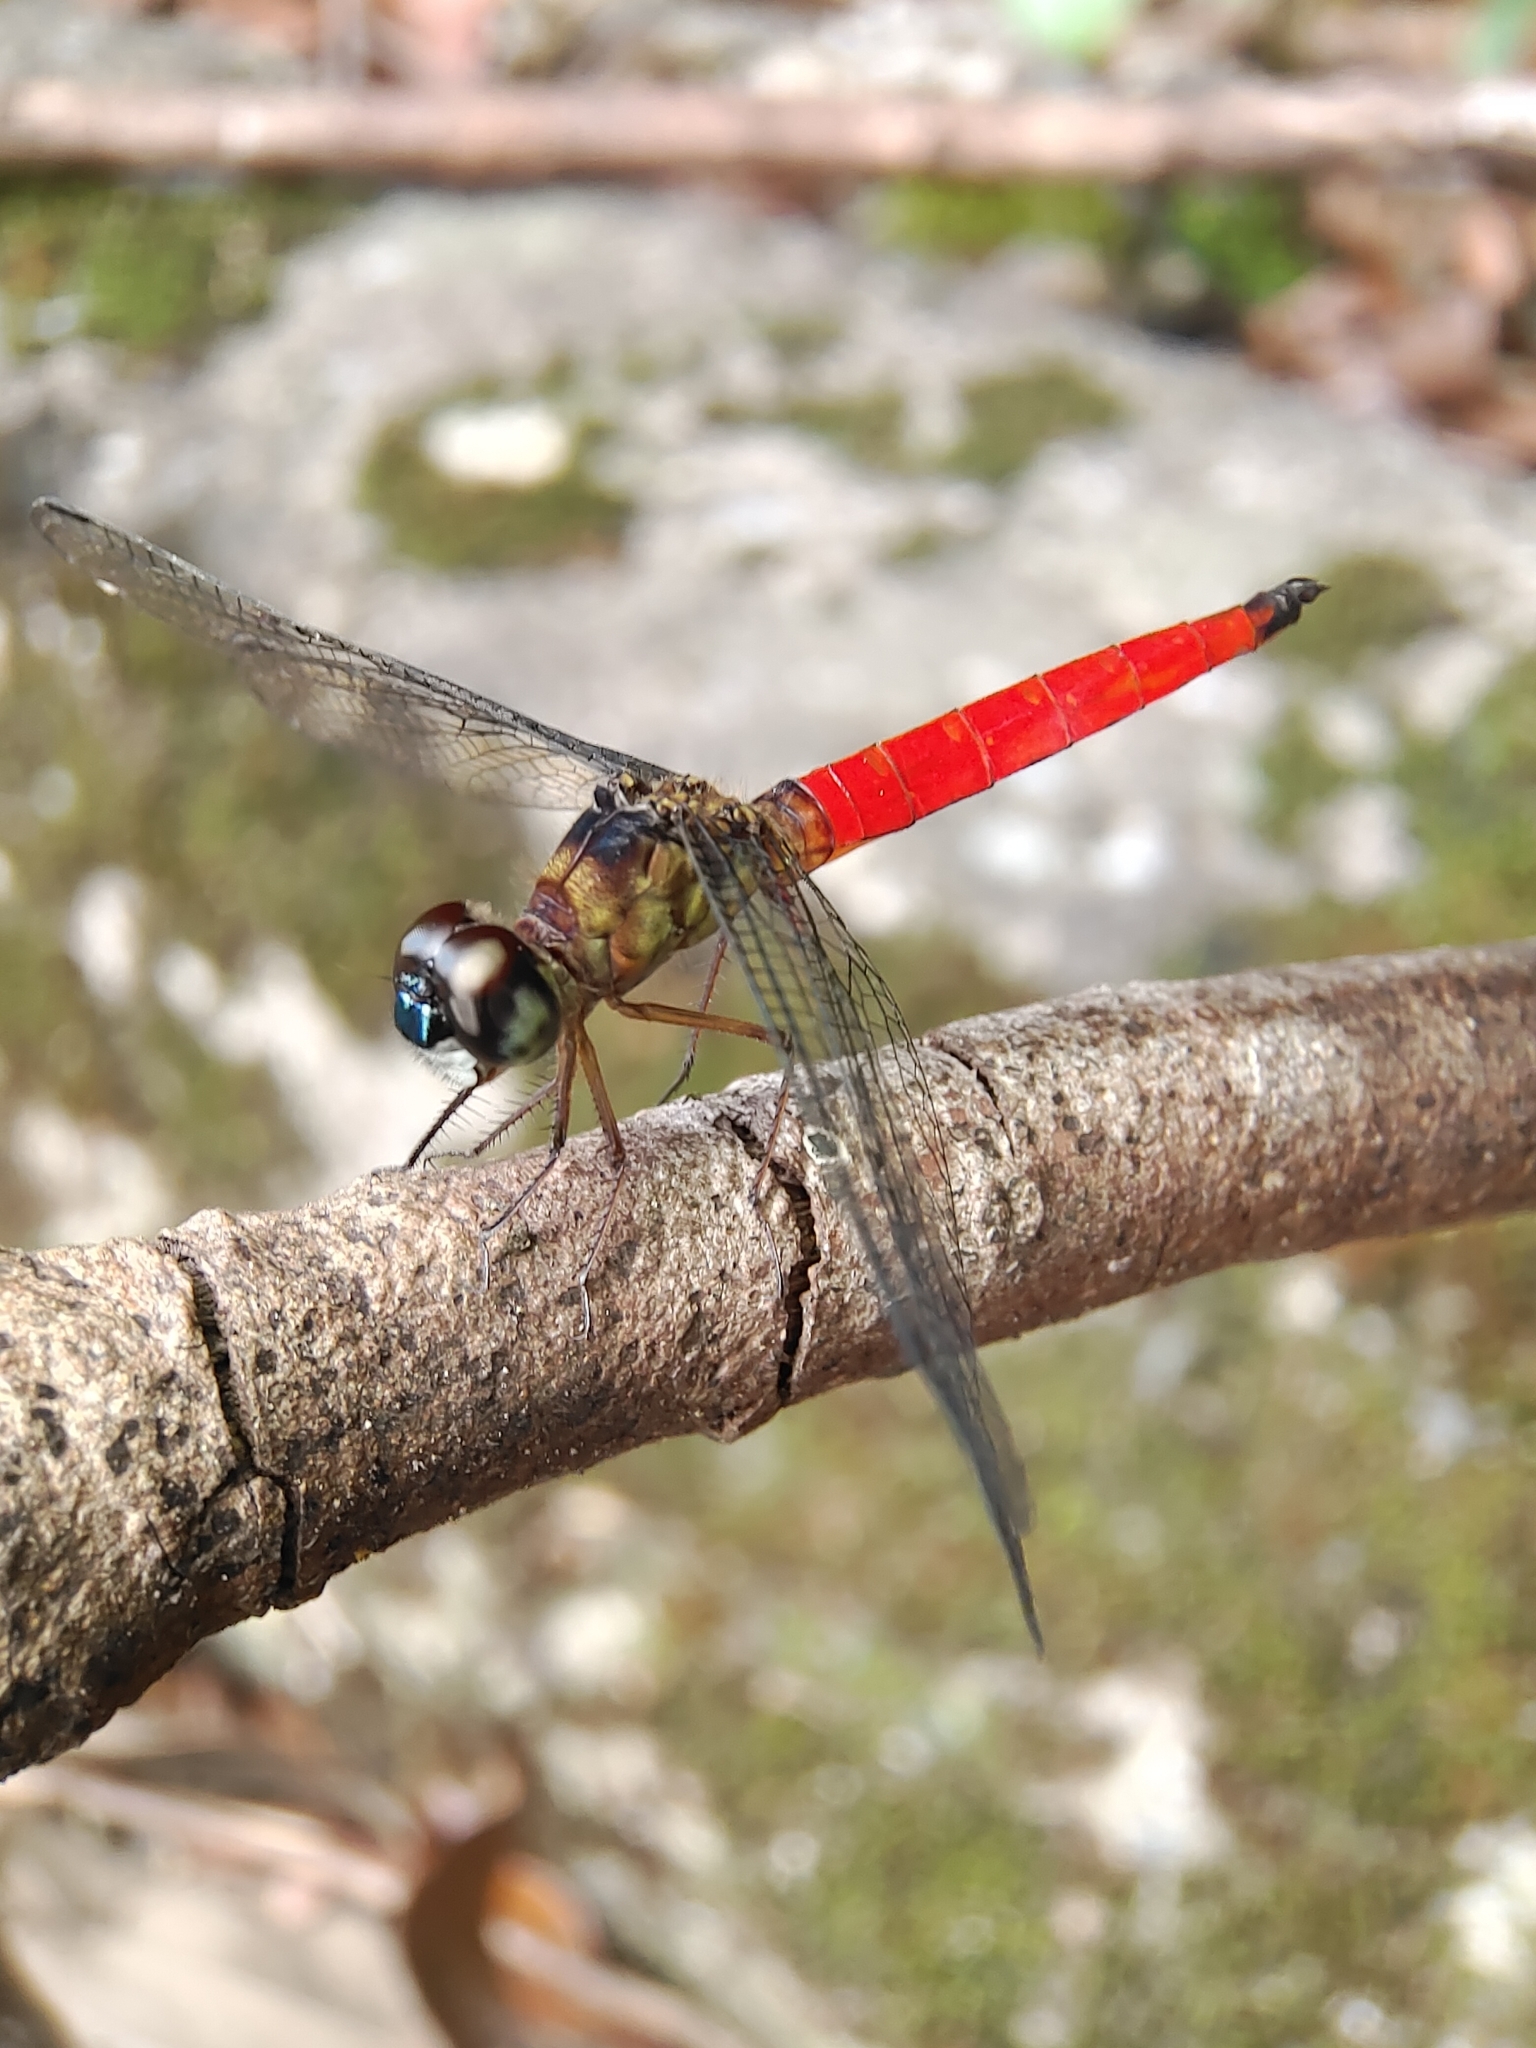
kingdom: Animalia
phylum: Arthropoda
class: Insecta
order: Odonata
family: Libellulidae
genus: Orchithemis
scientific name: Orchithemis pulcherrima
